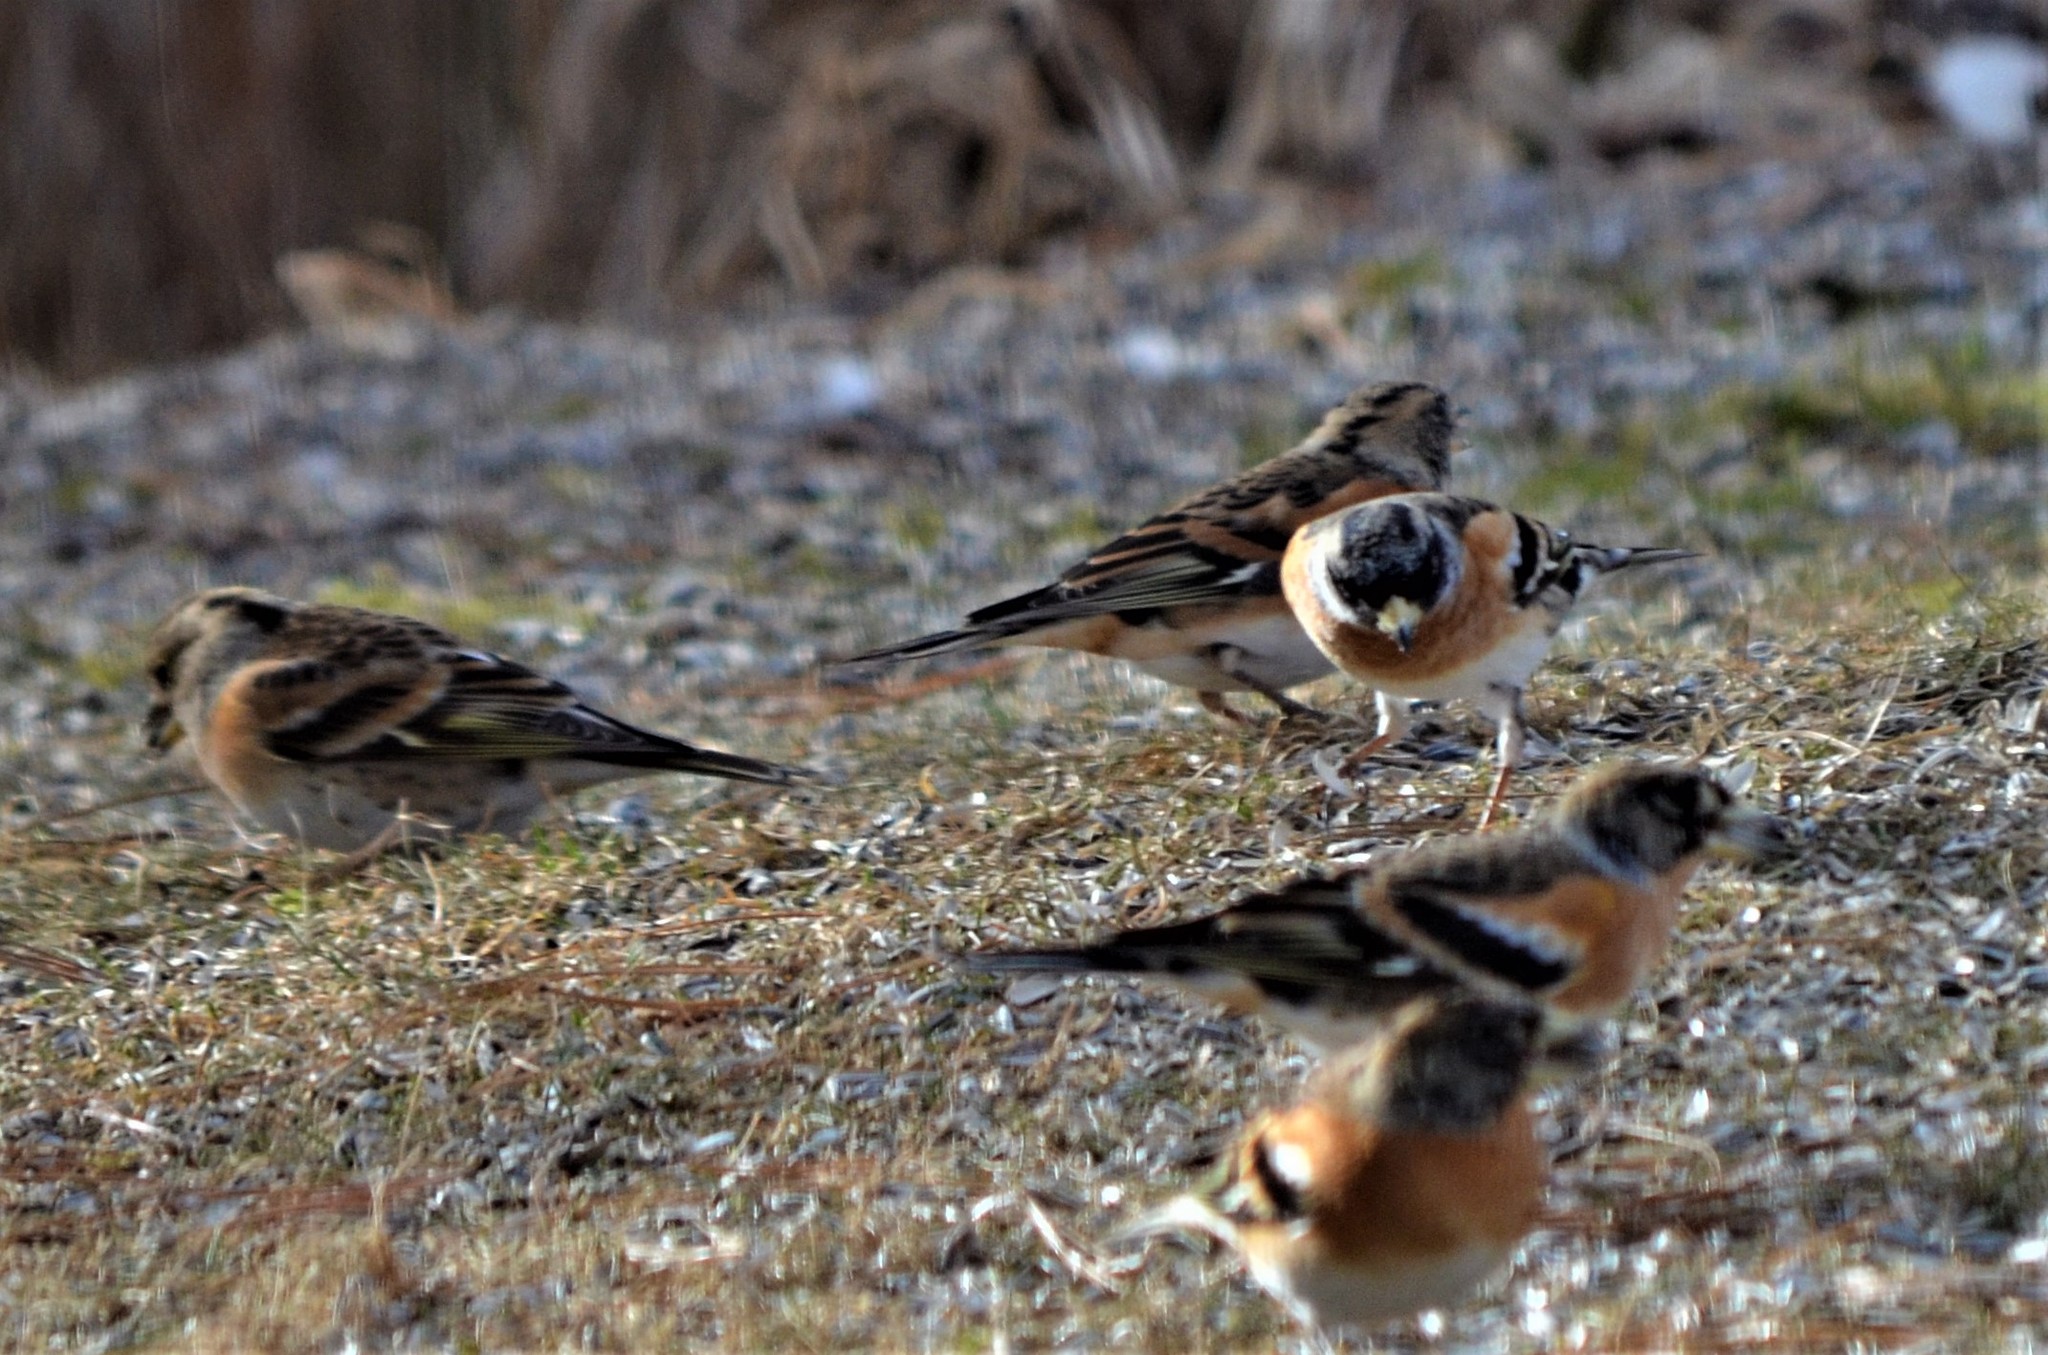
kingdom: Animalia
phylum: Chordata
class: Aves
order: Passeriformes
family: Fringillidae
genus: Fringilla
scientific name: Fringilla montifringilla
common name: Brambling
